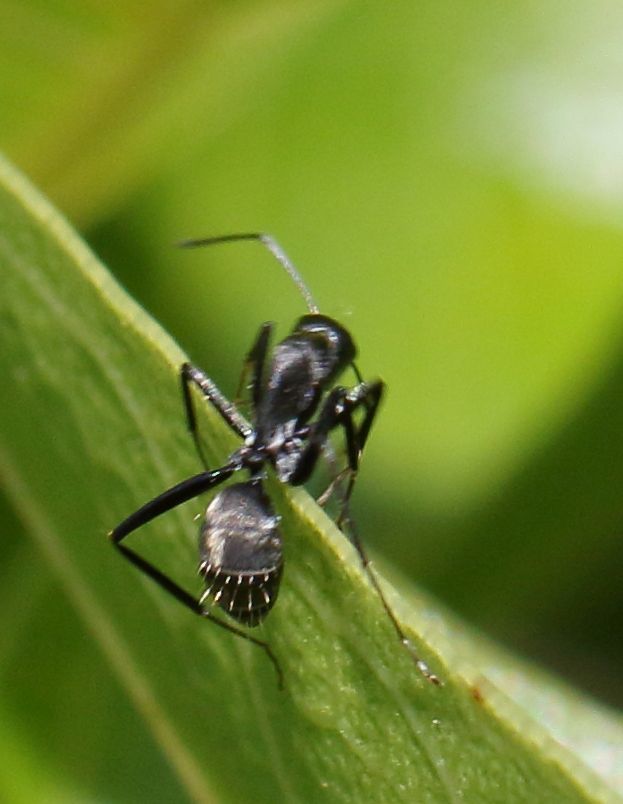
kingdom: Animalia
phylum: Arthropoda
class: Insecta
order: Hymenoptera
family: Formicidae
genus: Camponotus
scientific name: Camponotus cinctellus
